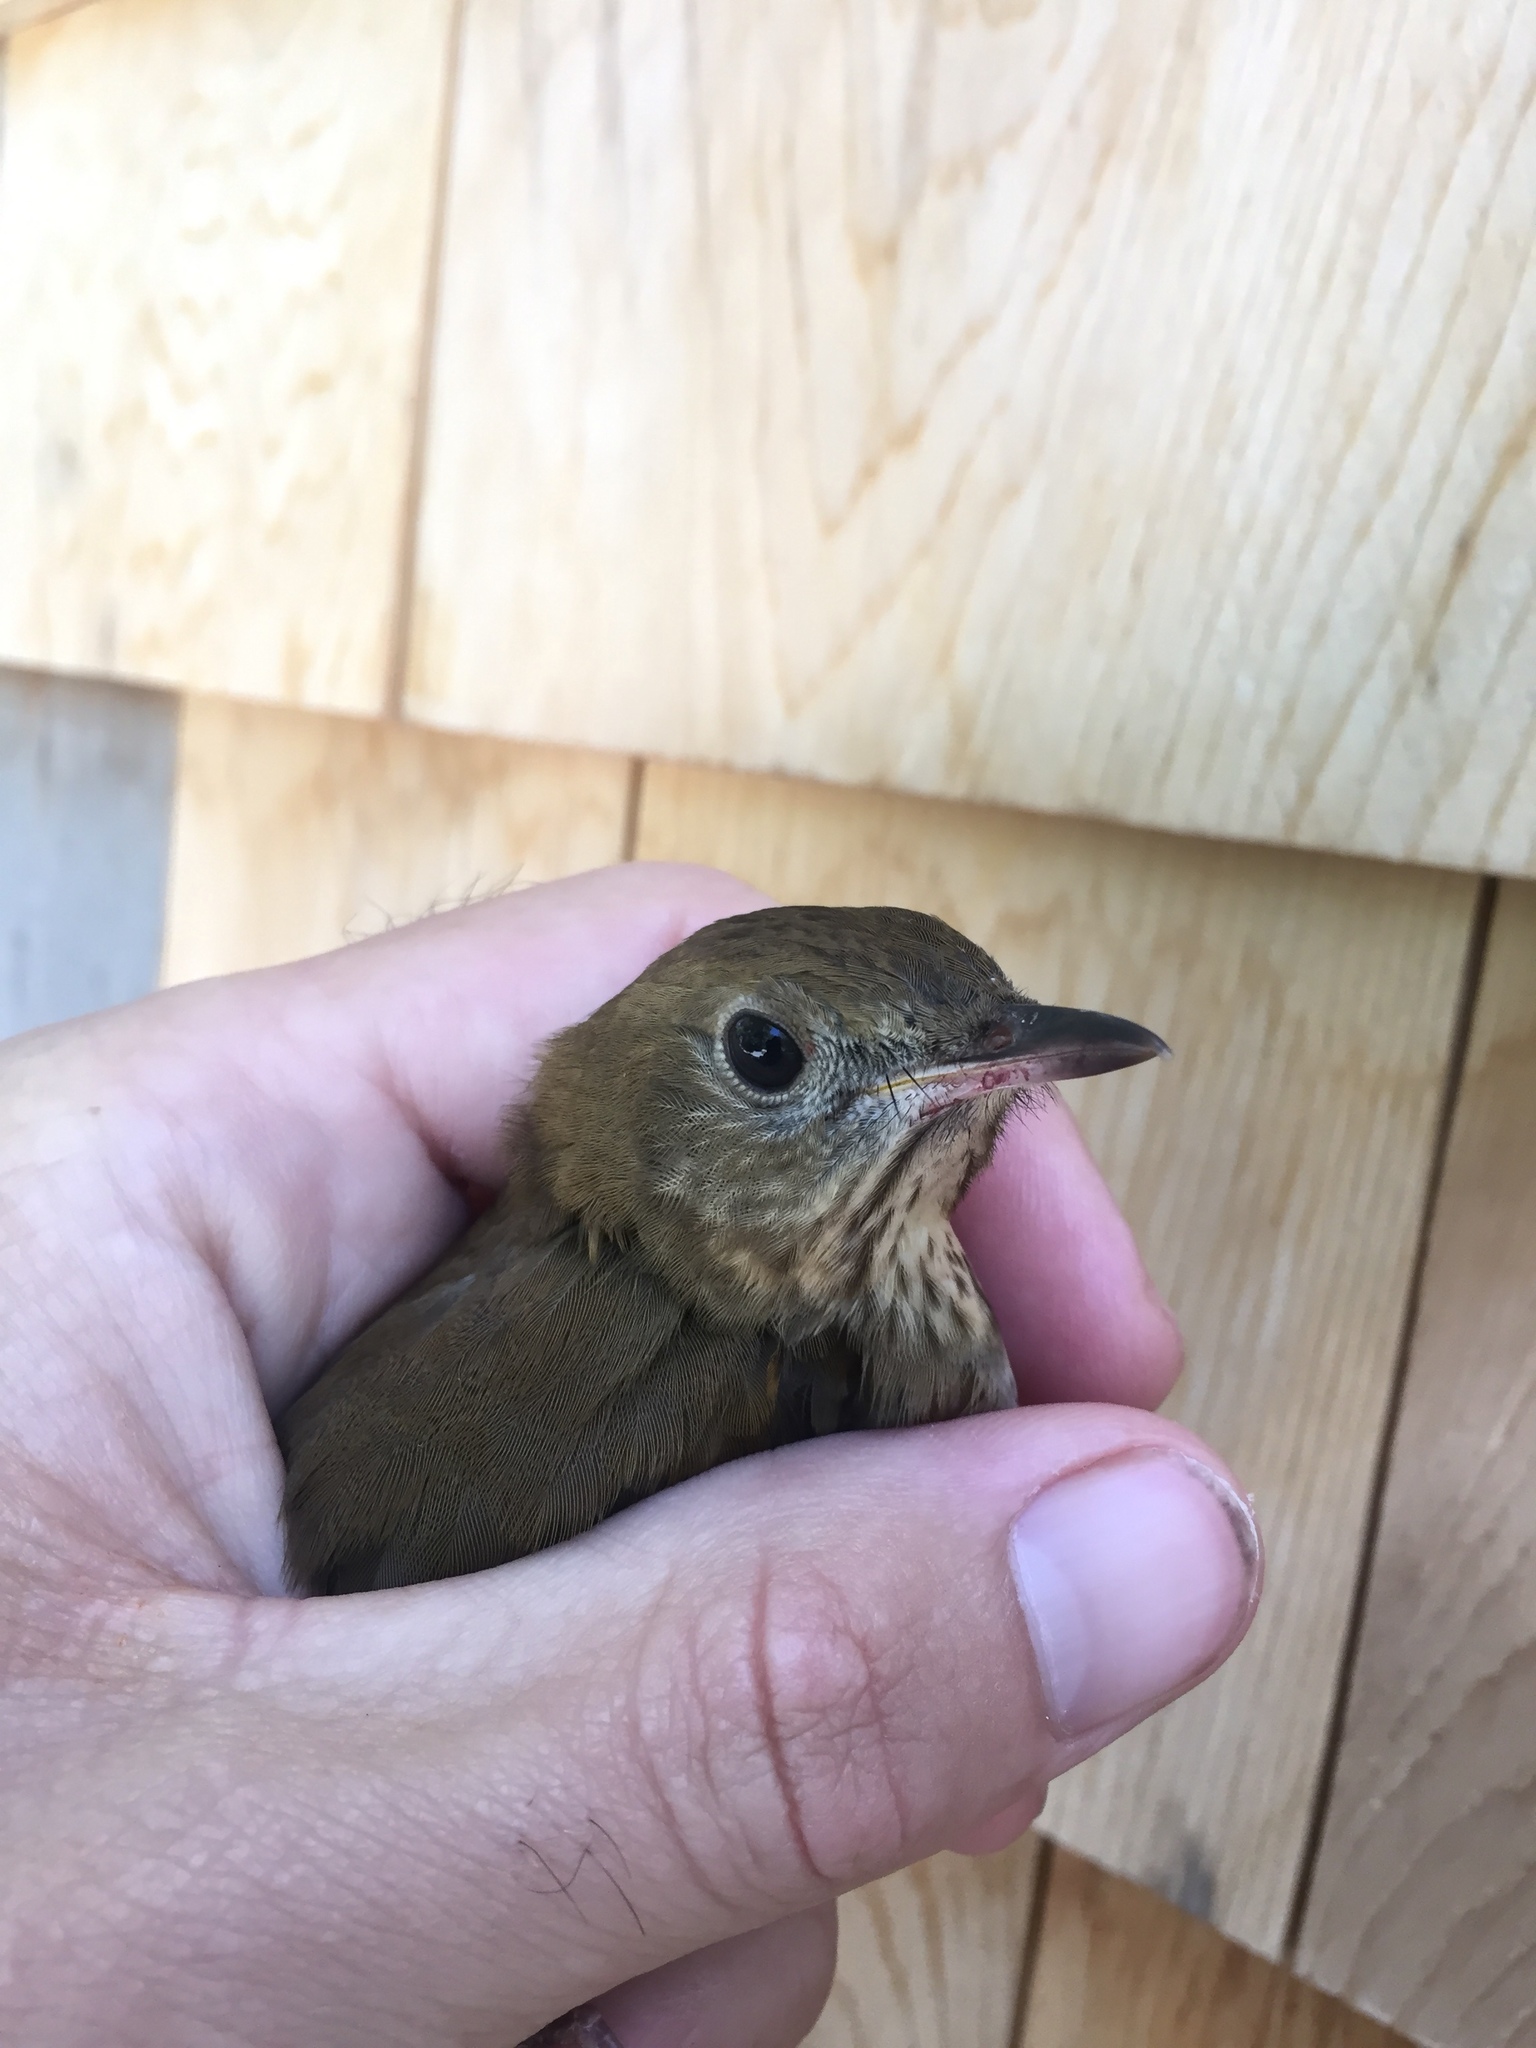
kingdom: Animalia
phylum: Chordata
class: Aves
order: Passeriformes
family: Turdidae
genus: Catharus
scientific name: Catharus fuscescens
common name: Veery
